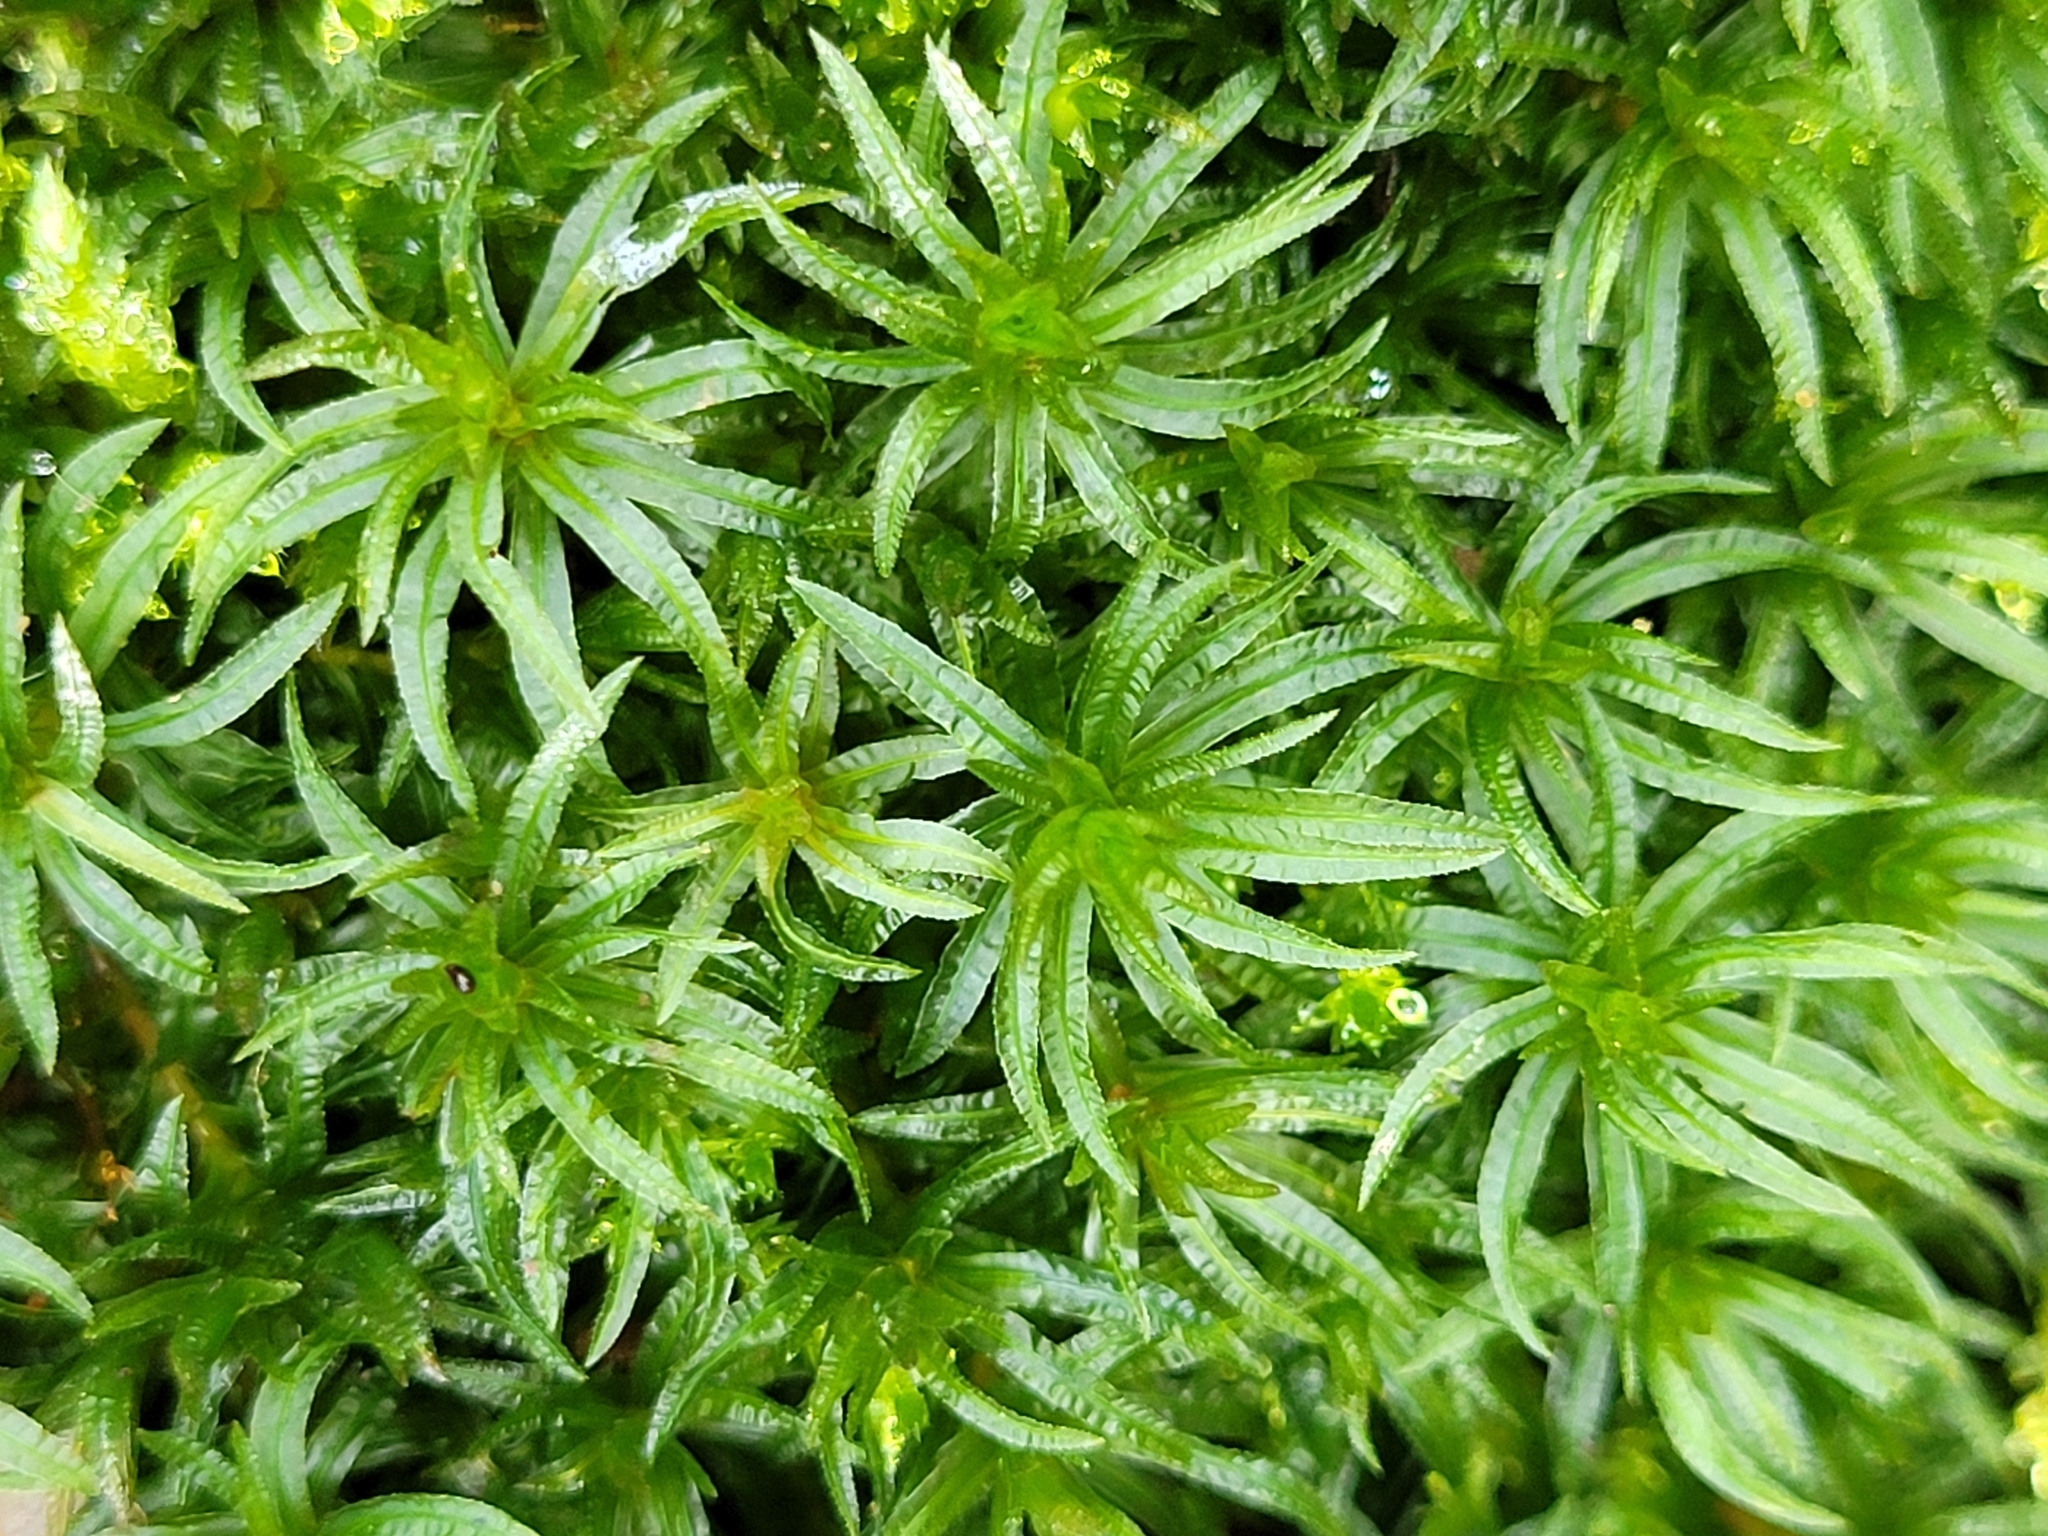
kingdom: Plantae
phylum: Bryophyta
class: Polytrichopsida
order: Polytrichales
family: Polytrichaceae
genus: Atrichum
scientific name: Atrichum undulatum
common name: Common smoothcap
